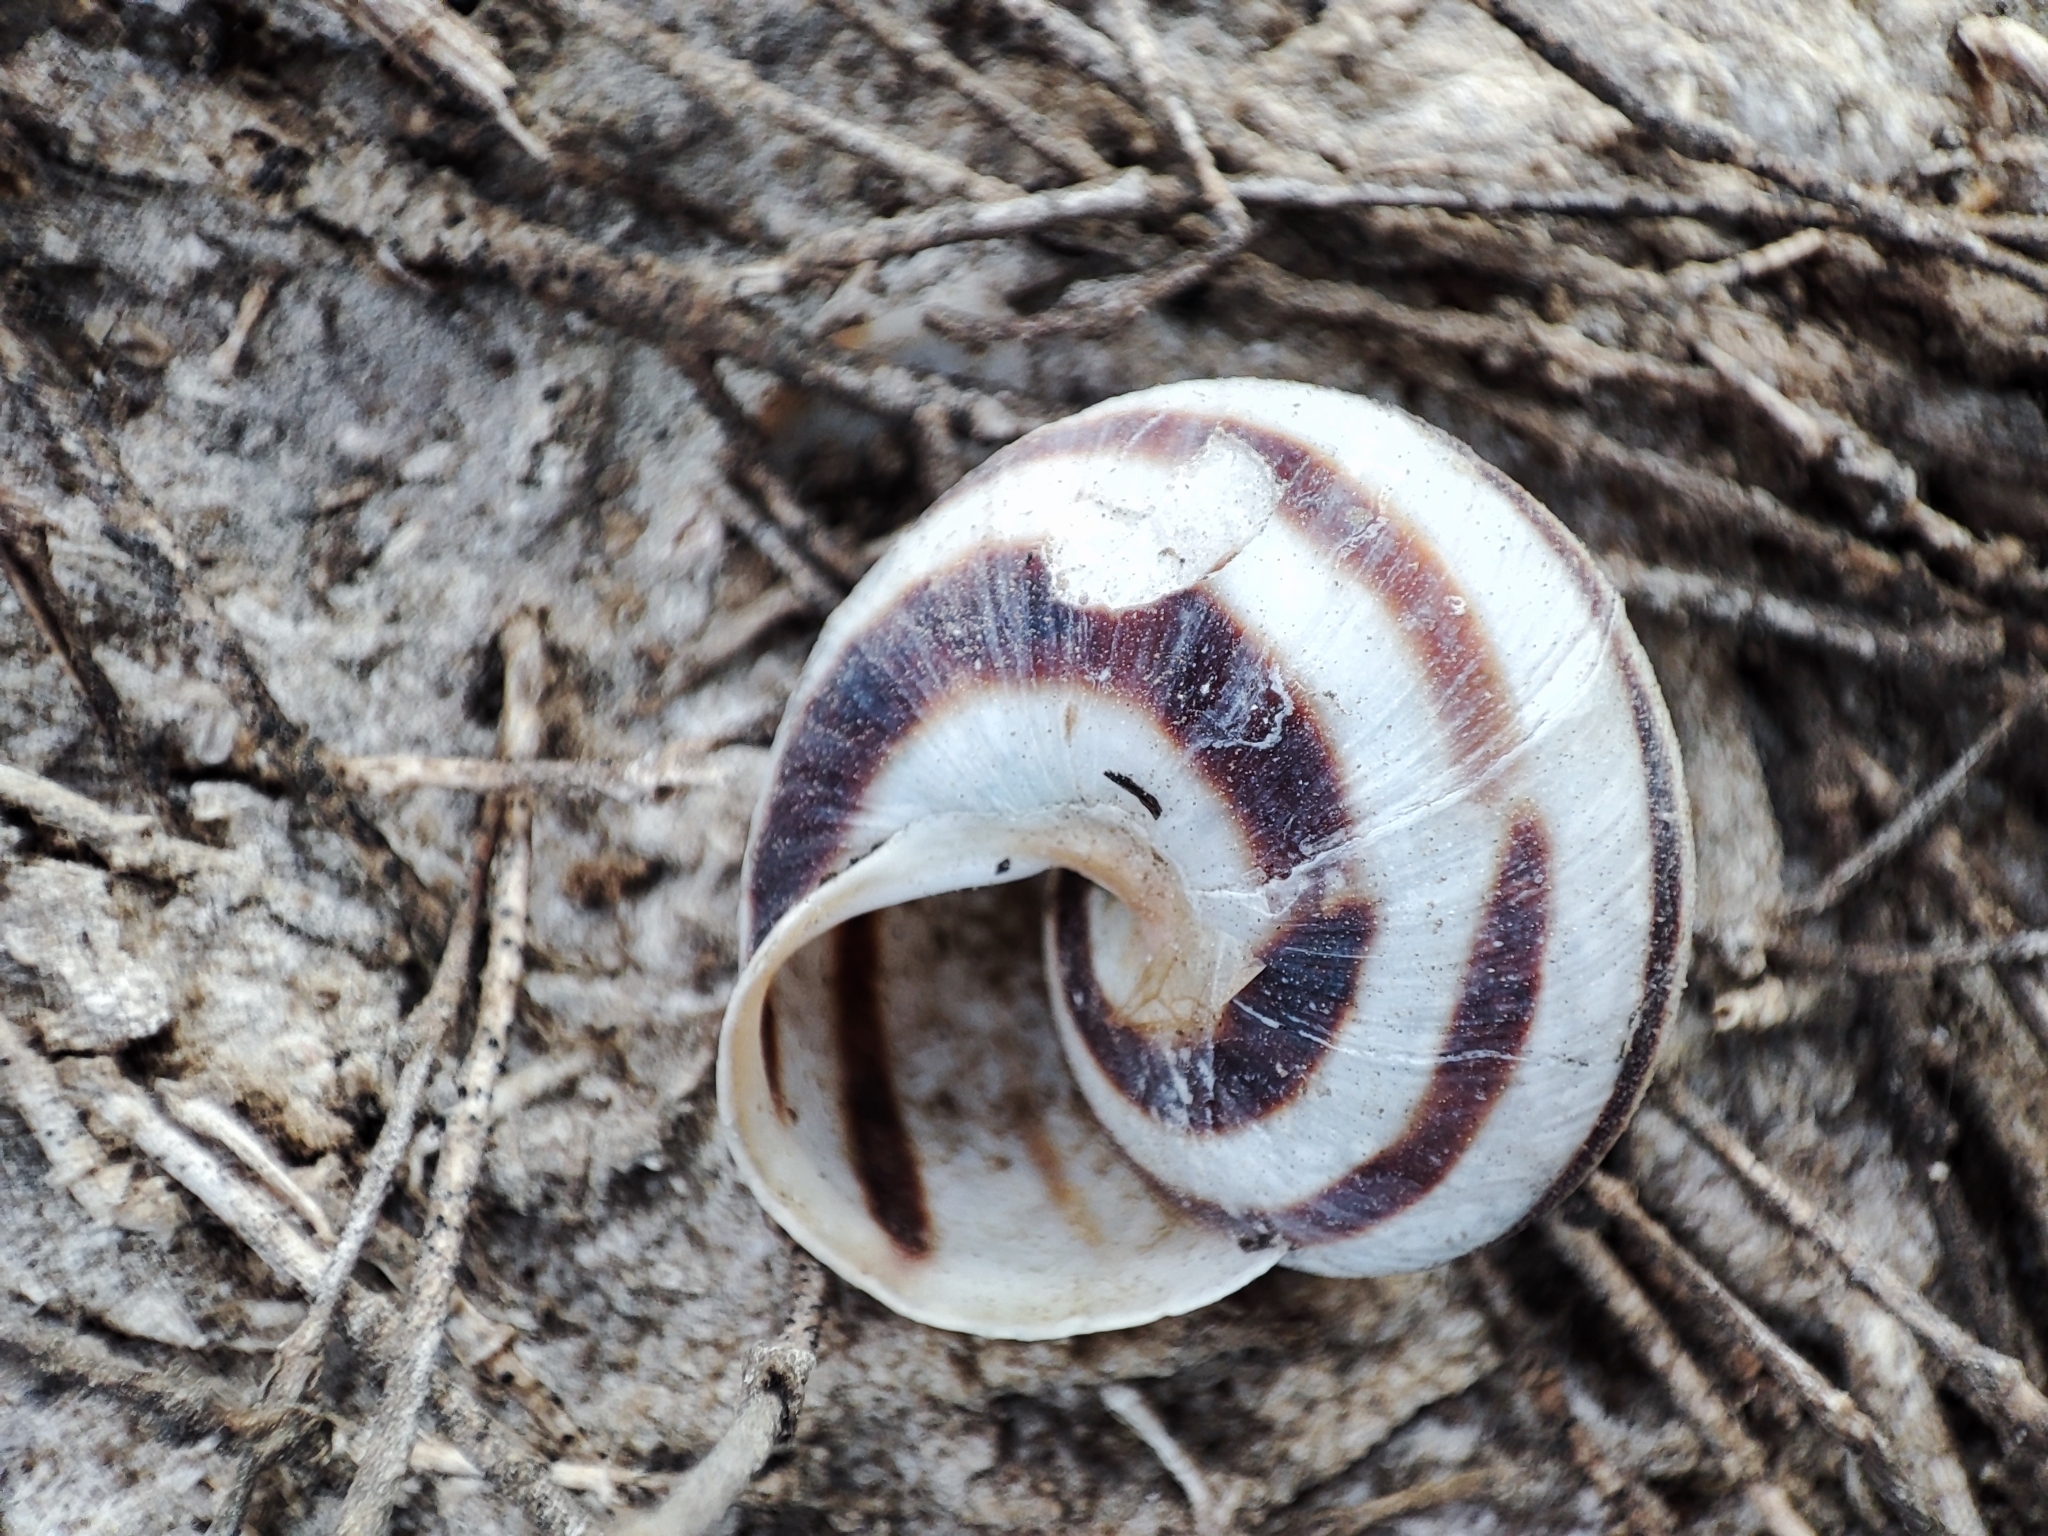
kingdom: Animalia
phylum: Mollusca
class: Gastropoda
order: Stylommatophora
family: Helicidae
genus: Caucasotachea
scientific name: Caucasotachea vindobonensis
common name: European helicid land snail
